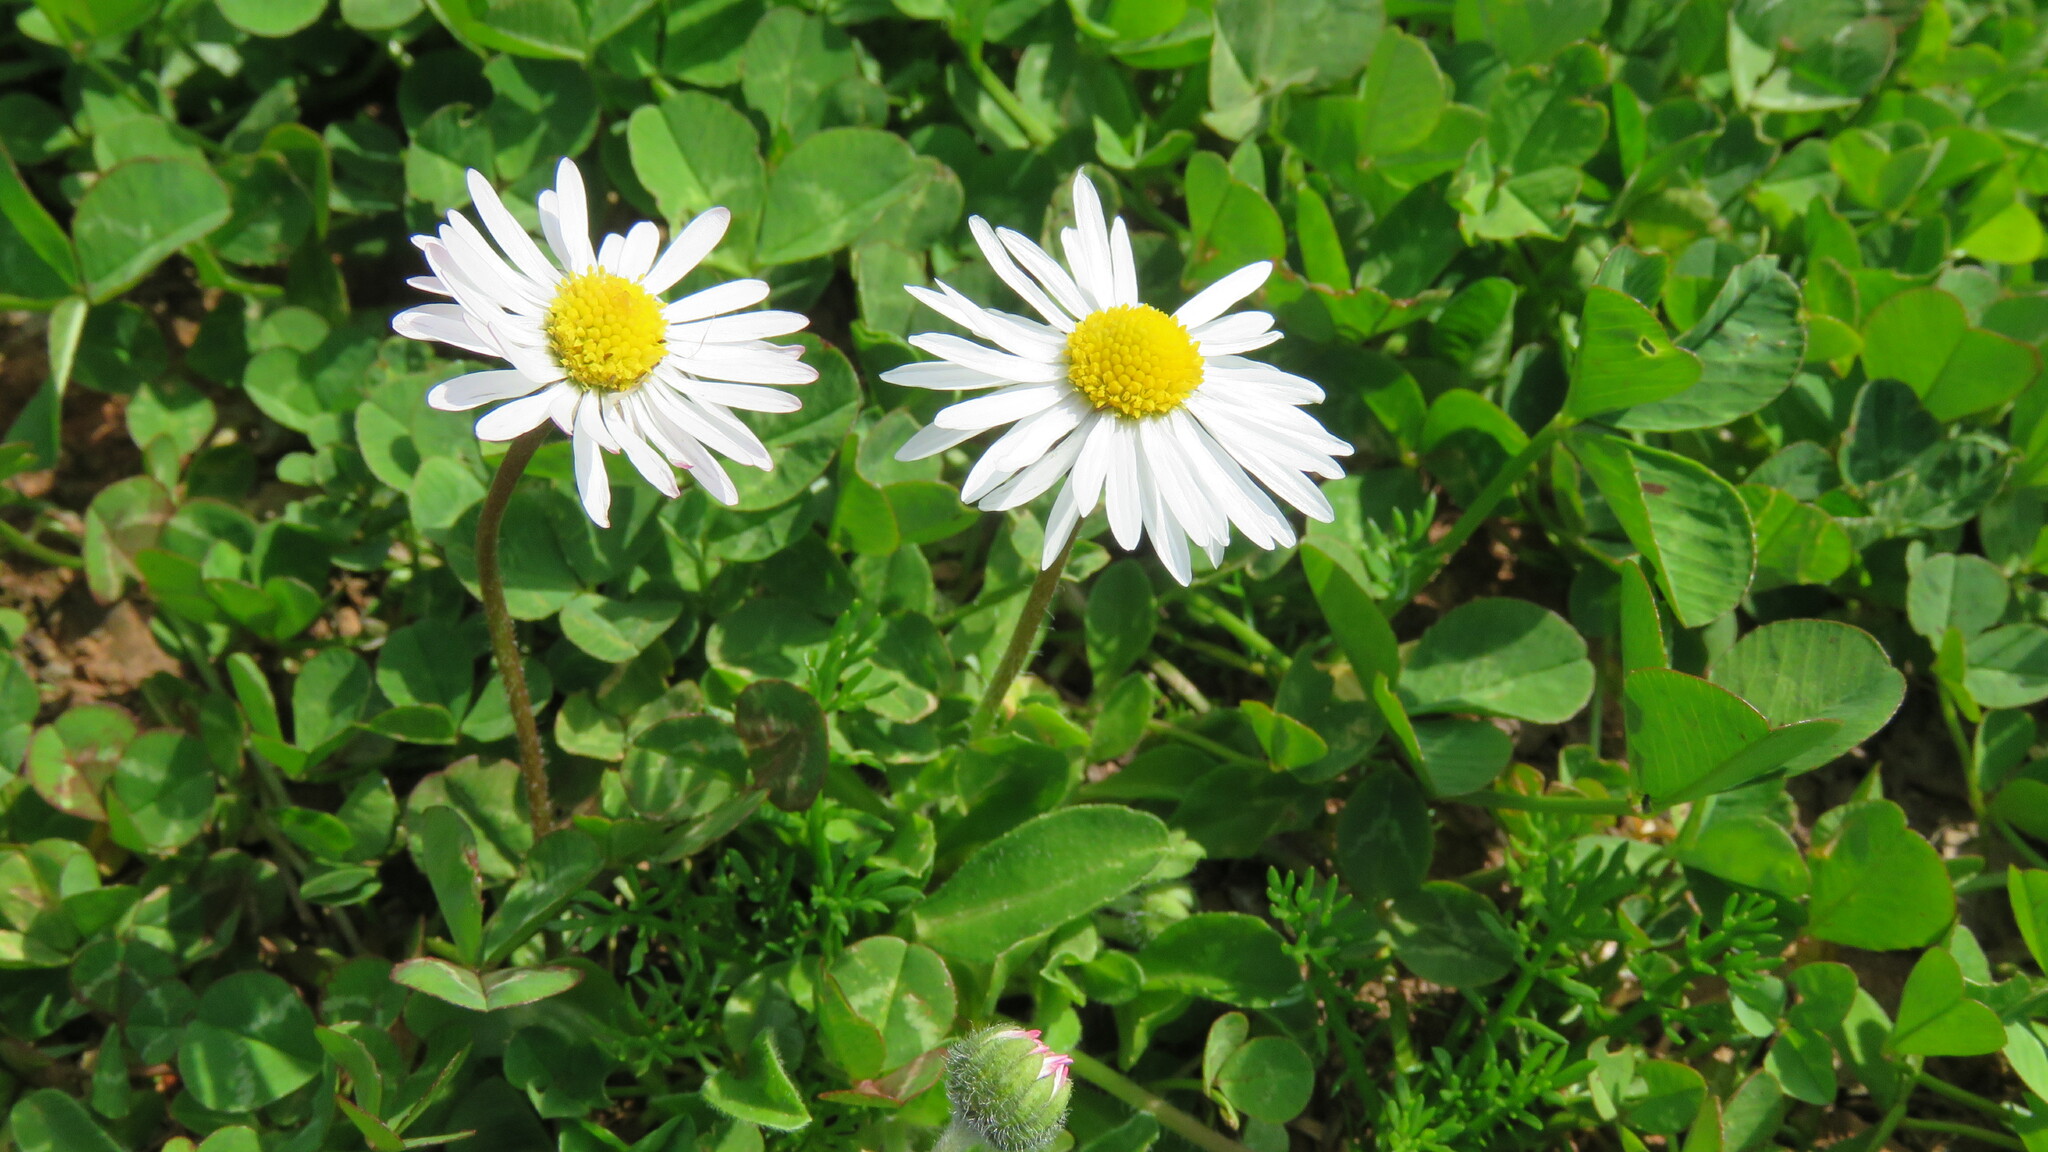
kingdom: Plantae
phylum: Tracheophyta
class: Magnoliopsida
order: Asterales
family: Asteraceae
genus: Bellis
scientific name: Bellis perennis
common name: Lawndaisy
